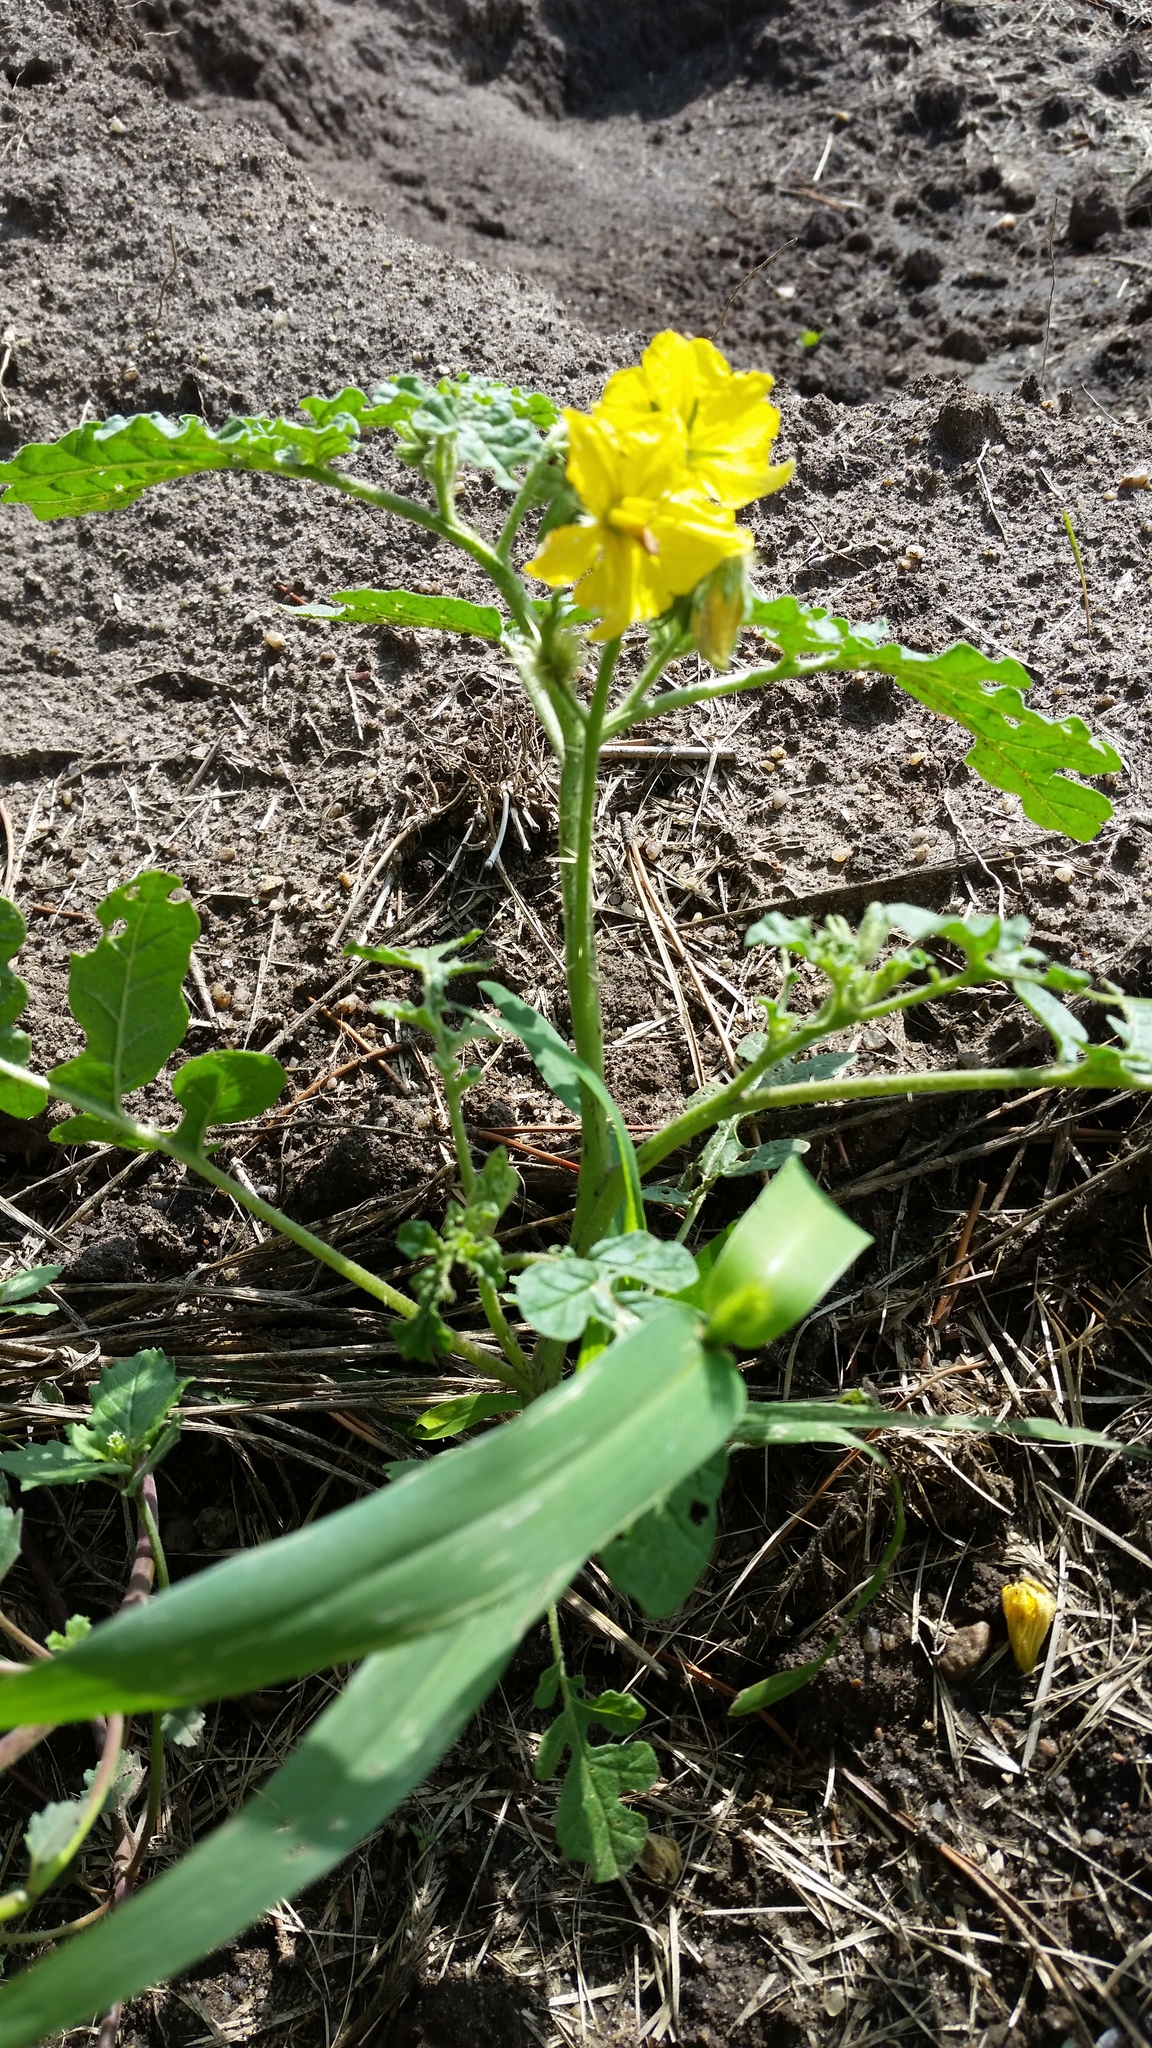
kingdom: Plantae
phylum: Tracheophyta
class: Magnoliopsida
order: Solanales
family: Solanaceae
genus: Solanum
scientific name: Solanum angustifolium
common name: Buffalobur nightshade
